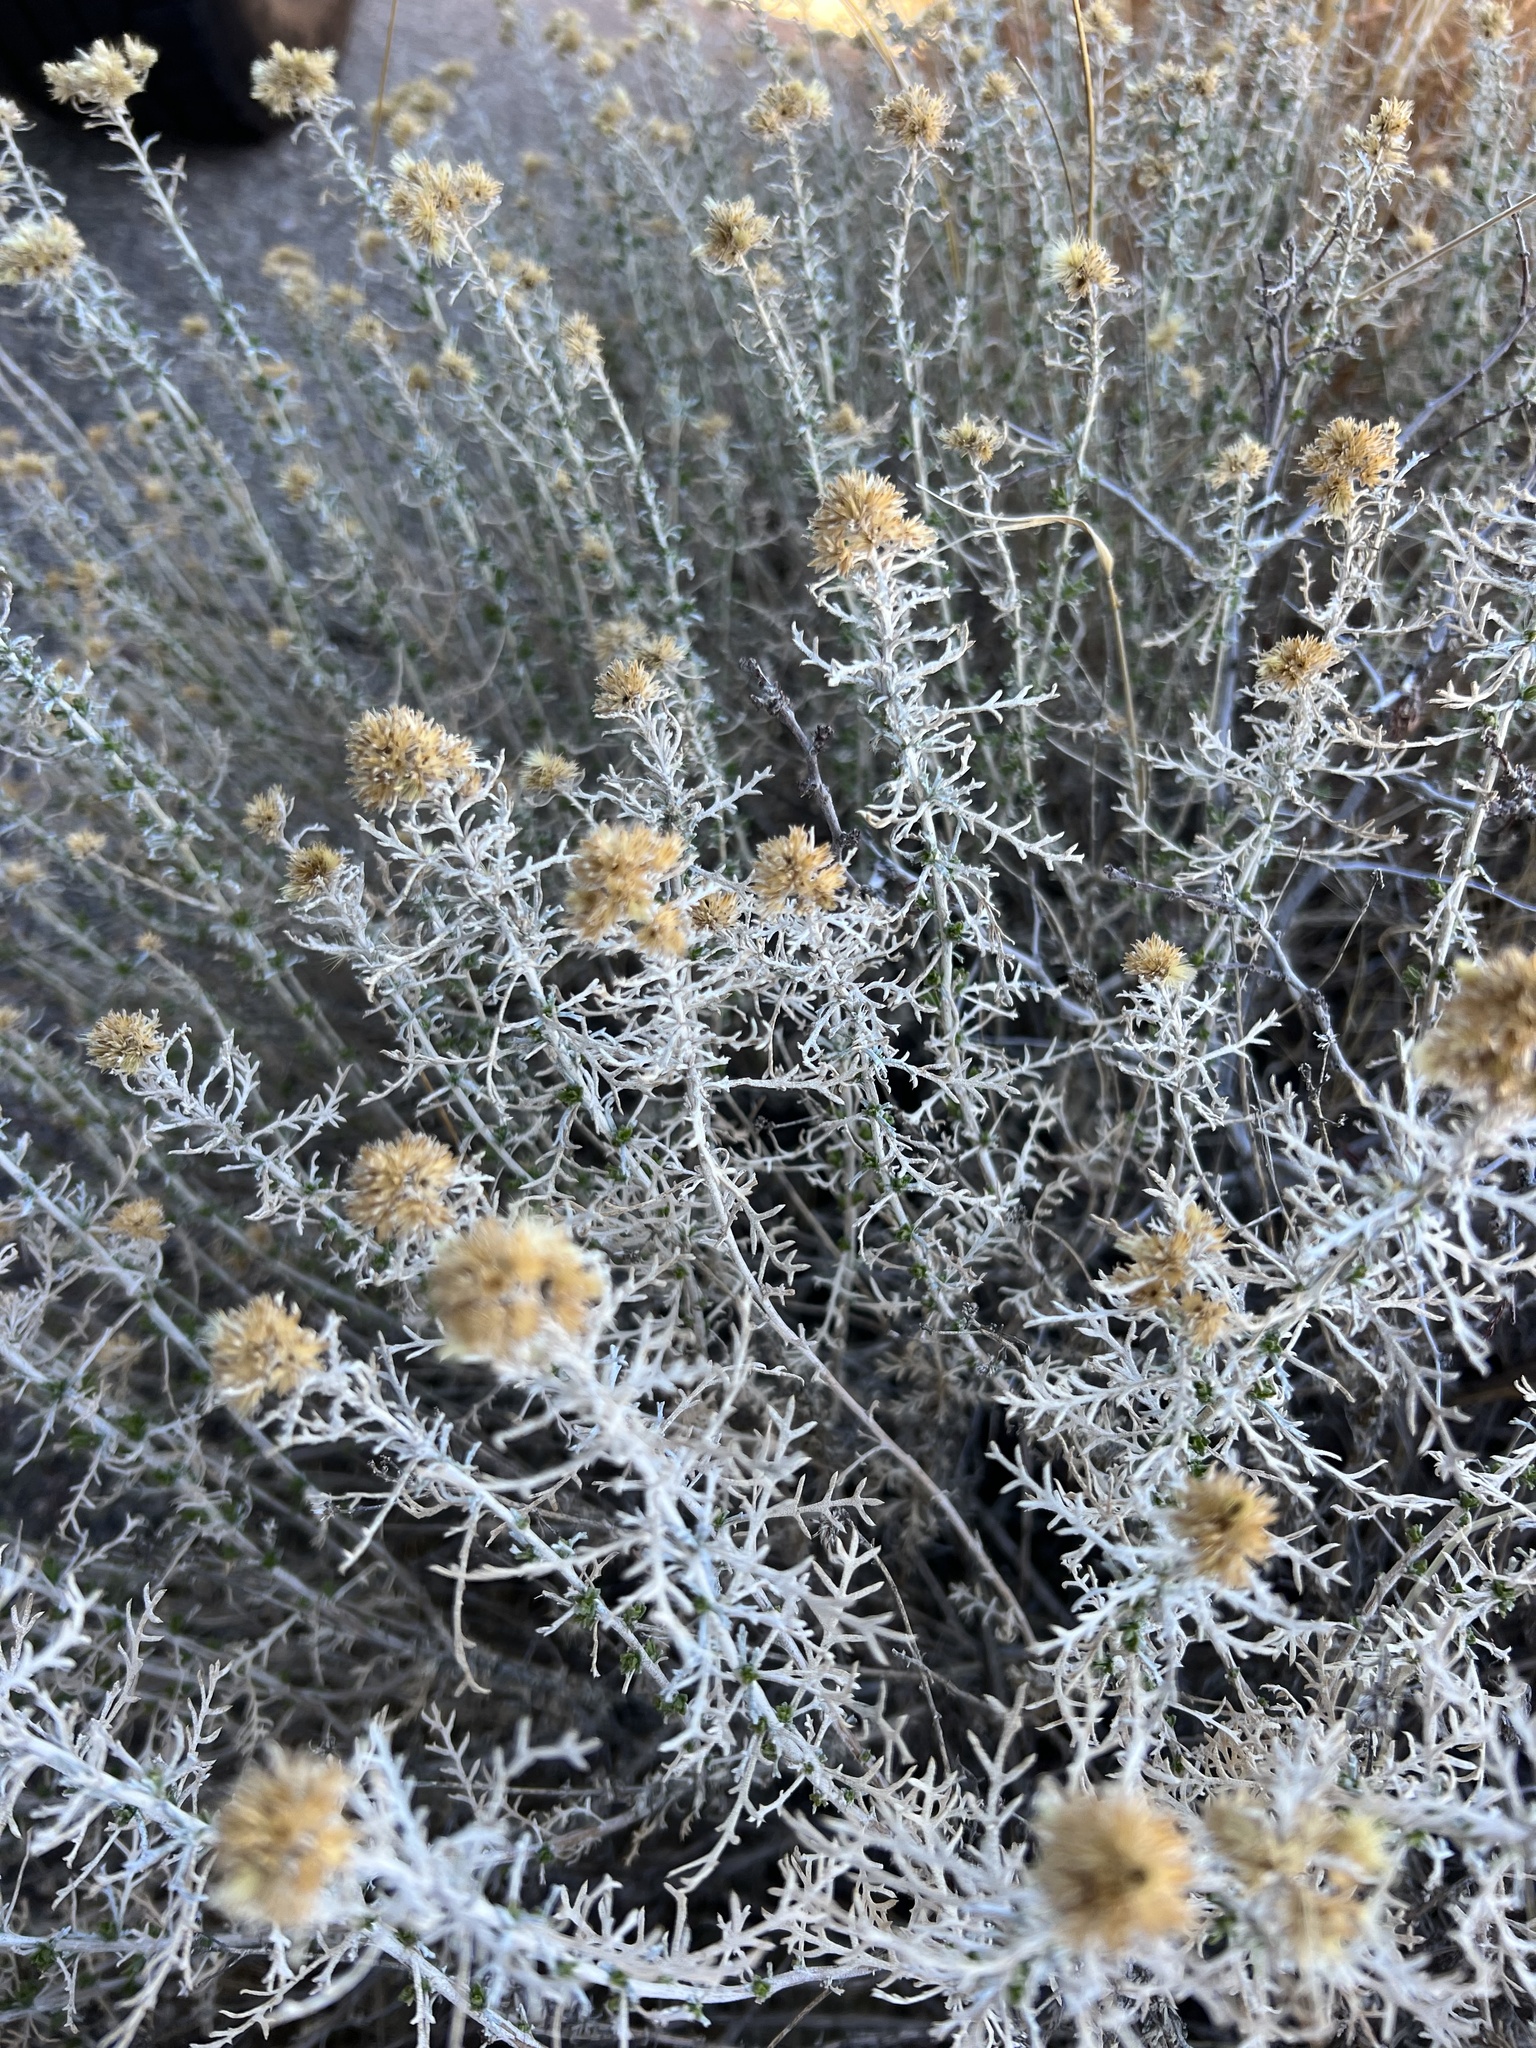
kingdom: Plantae
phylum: Tracheophyta
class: Magnoliopsida
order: Asterales
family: Asteraceae
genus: Isocoma
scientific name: Isocoma tenuisecta
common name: Burroweed
